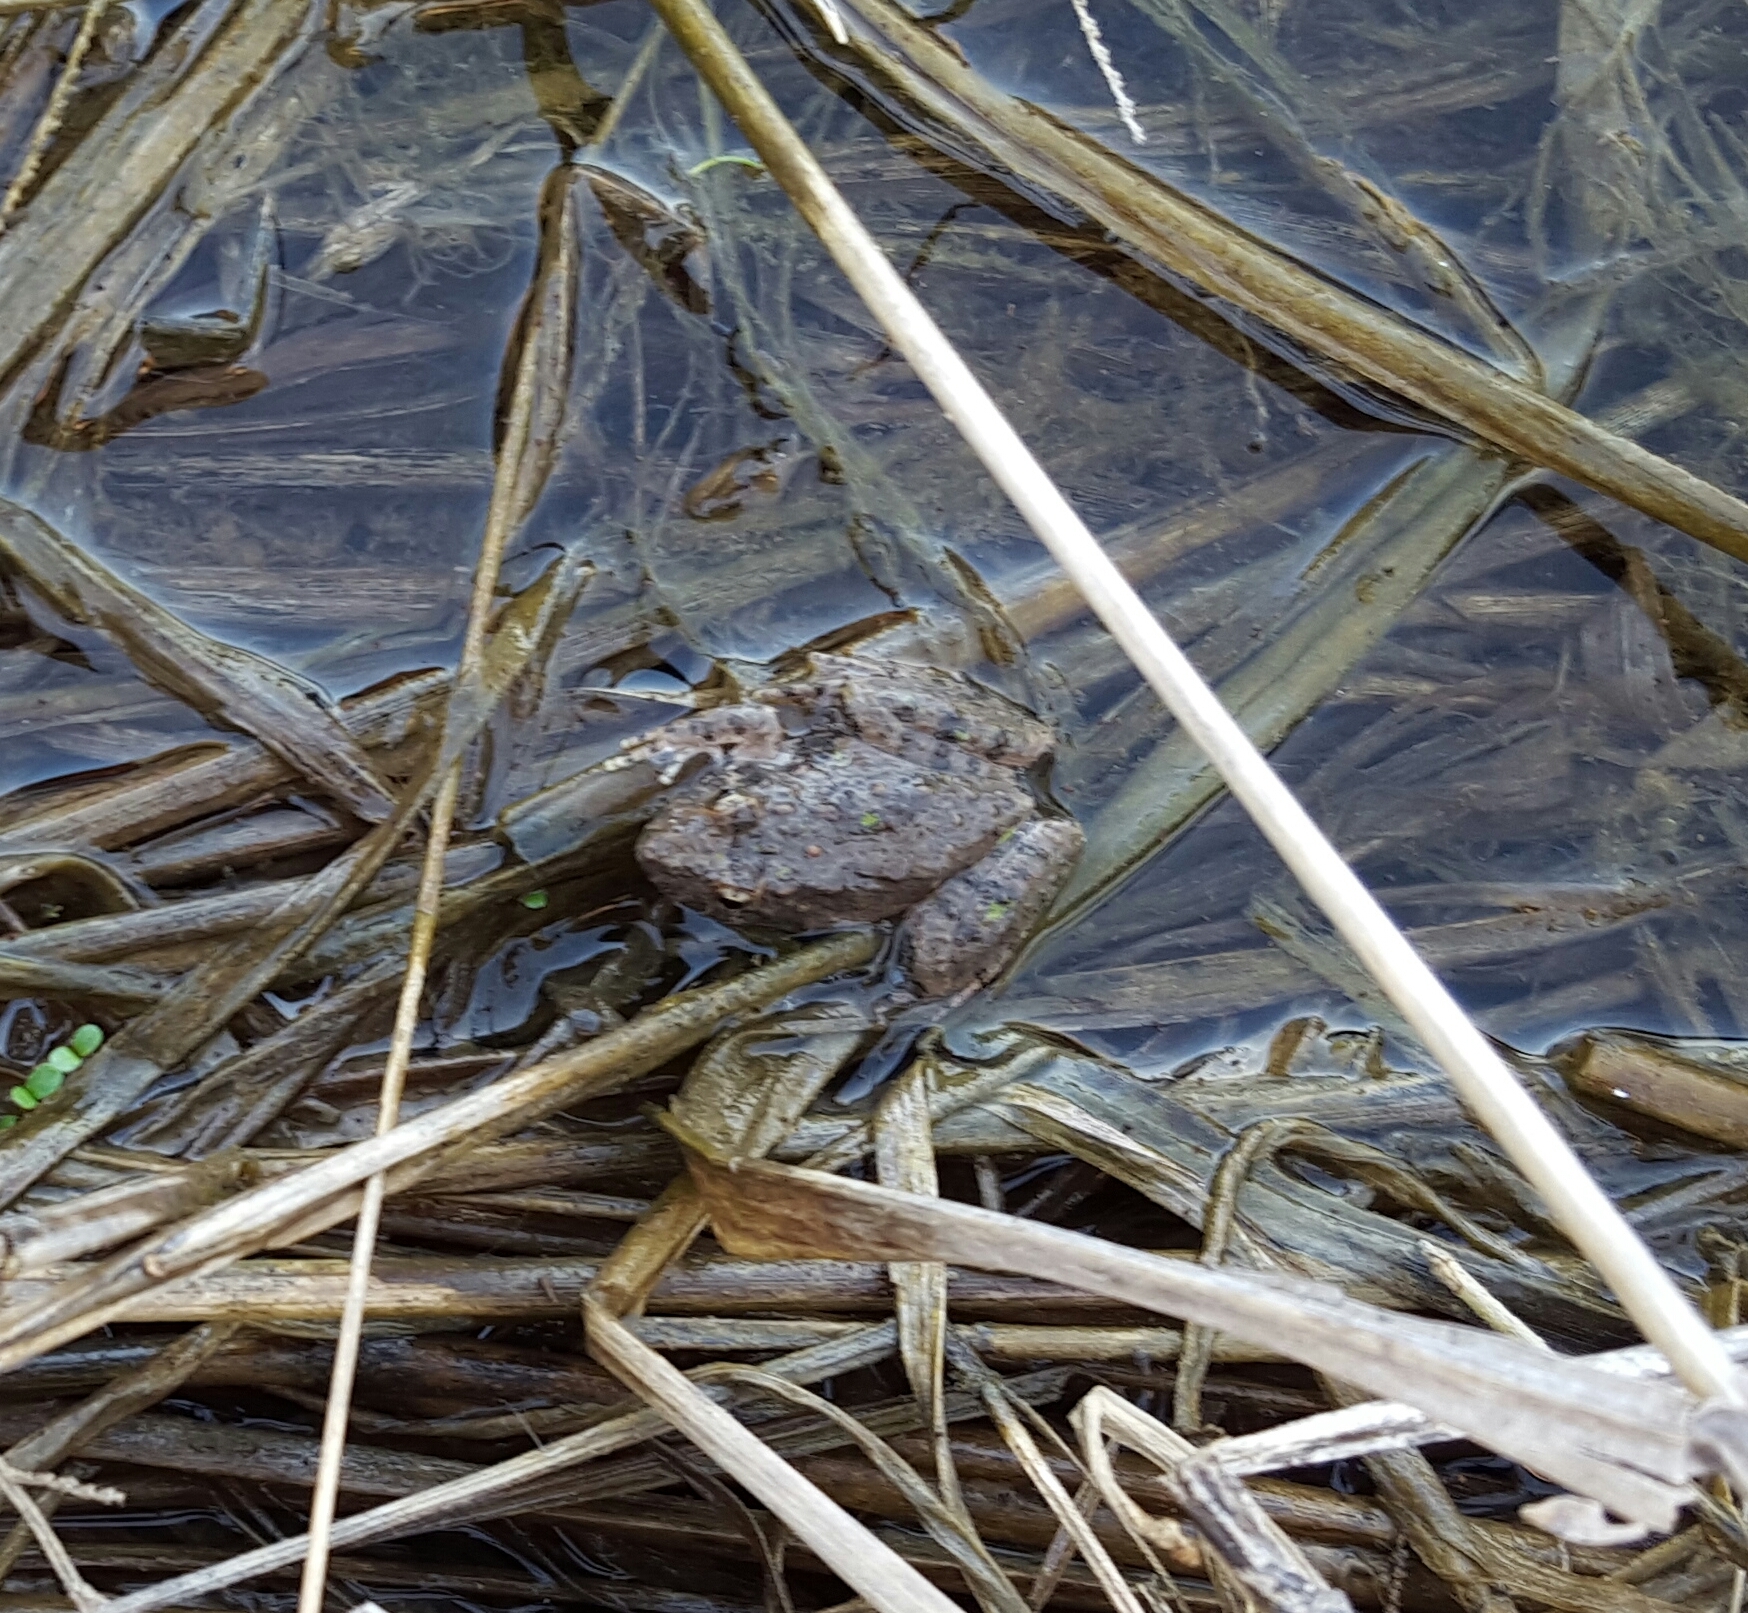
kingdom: Animalia
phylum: Chordata
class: Amphibia
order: Anura
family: Hylidae
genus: Acris
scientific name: Acris blanchardi
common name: Blanchard's cricket frog
